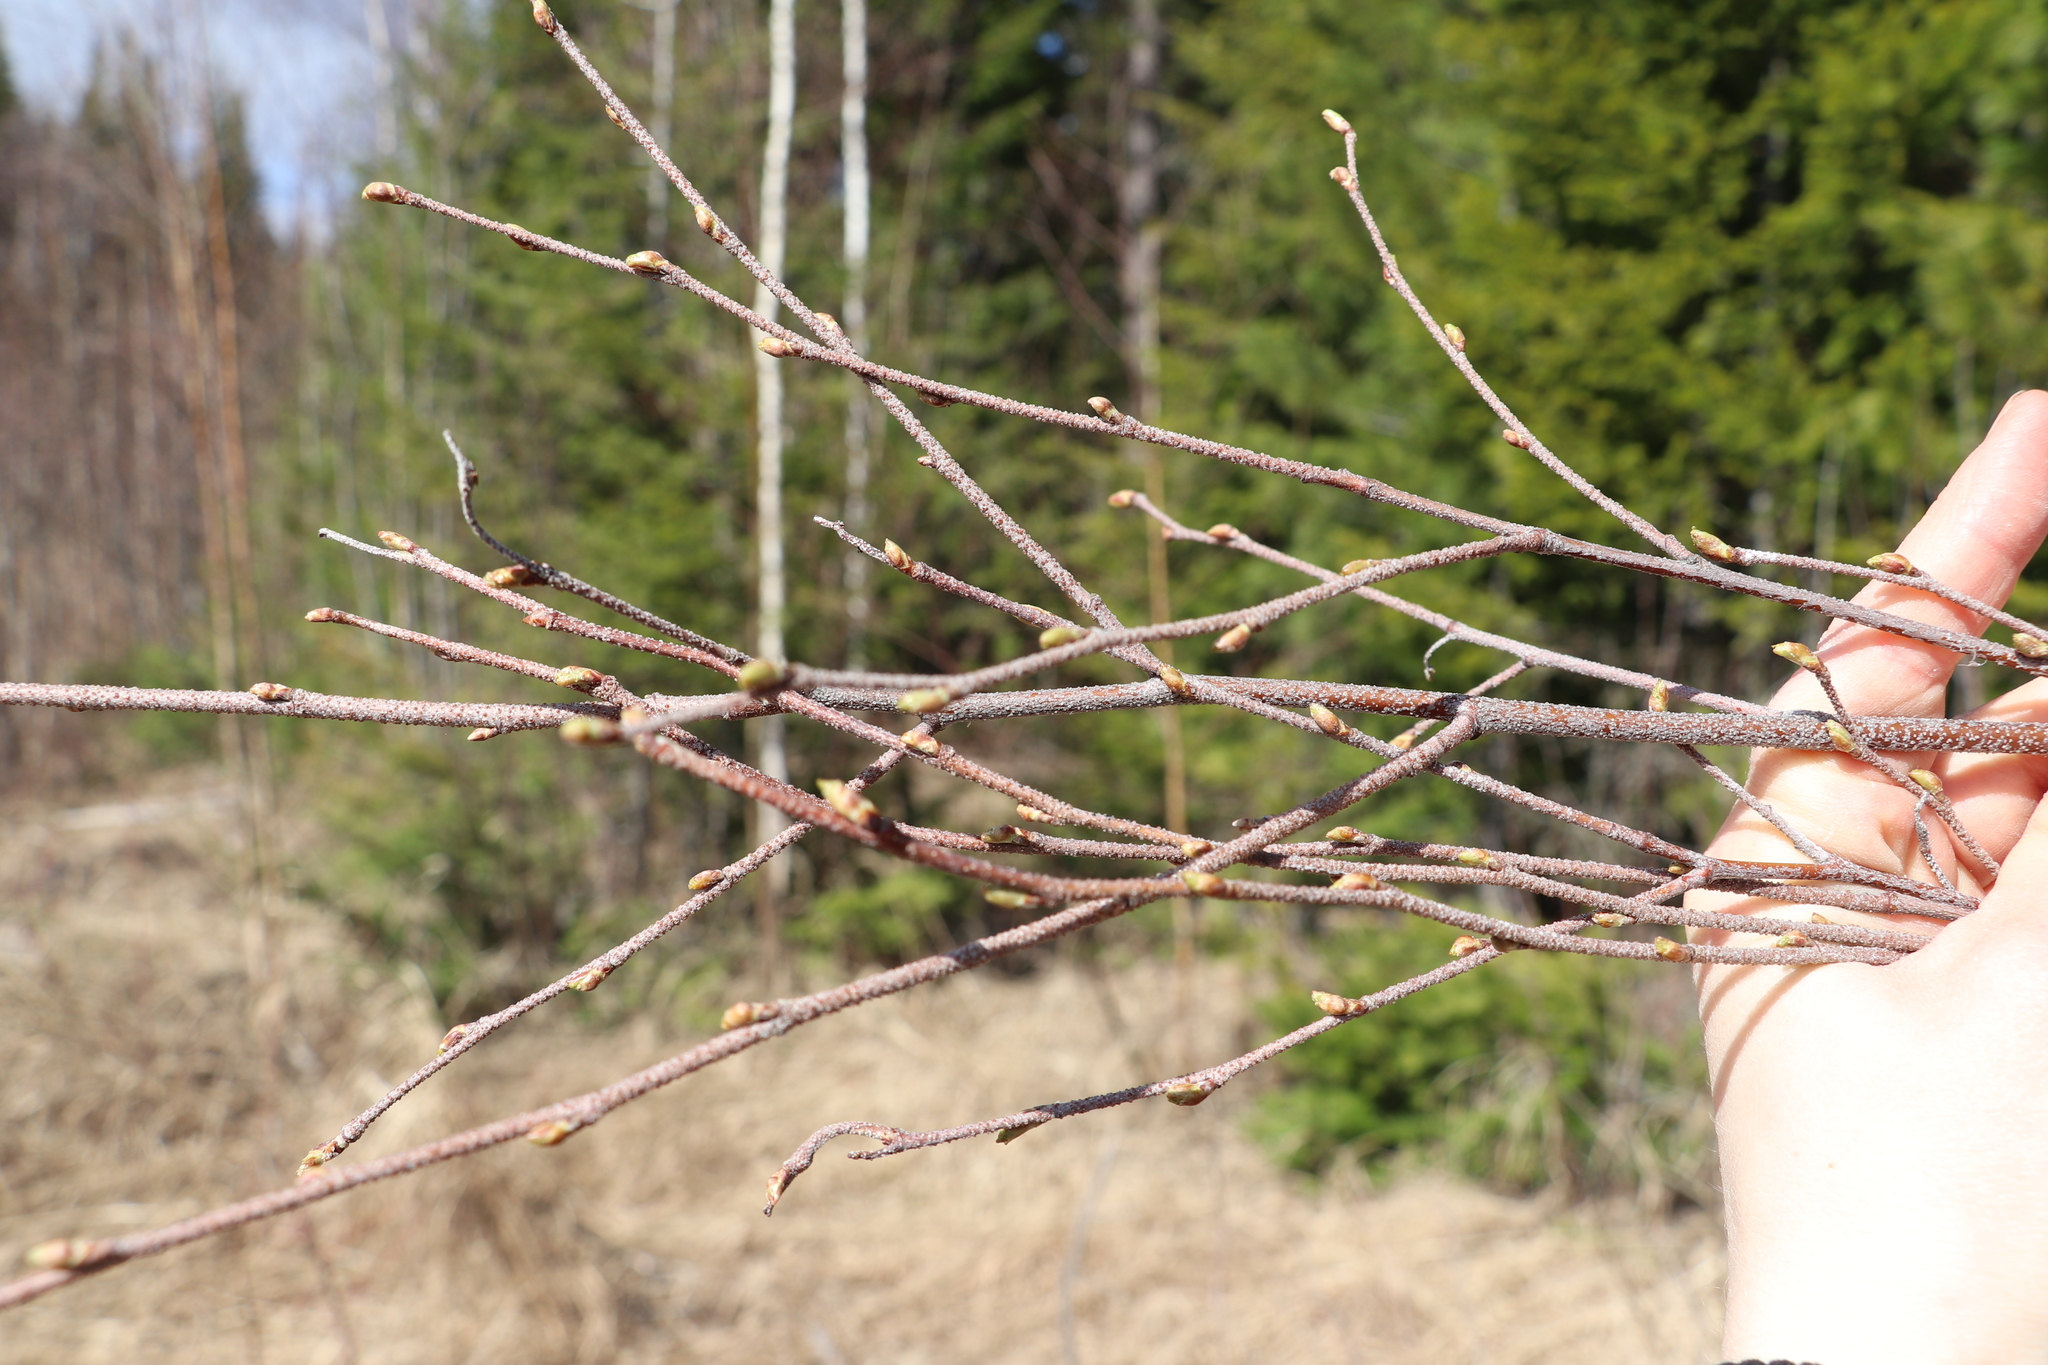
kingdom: Plantae
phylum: Tracheophyta
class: Magnoliopsida
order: Fagales
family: Betulaceae
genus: Betula
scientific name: Betula pendula
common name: Silver birch
